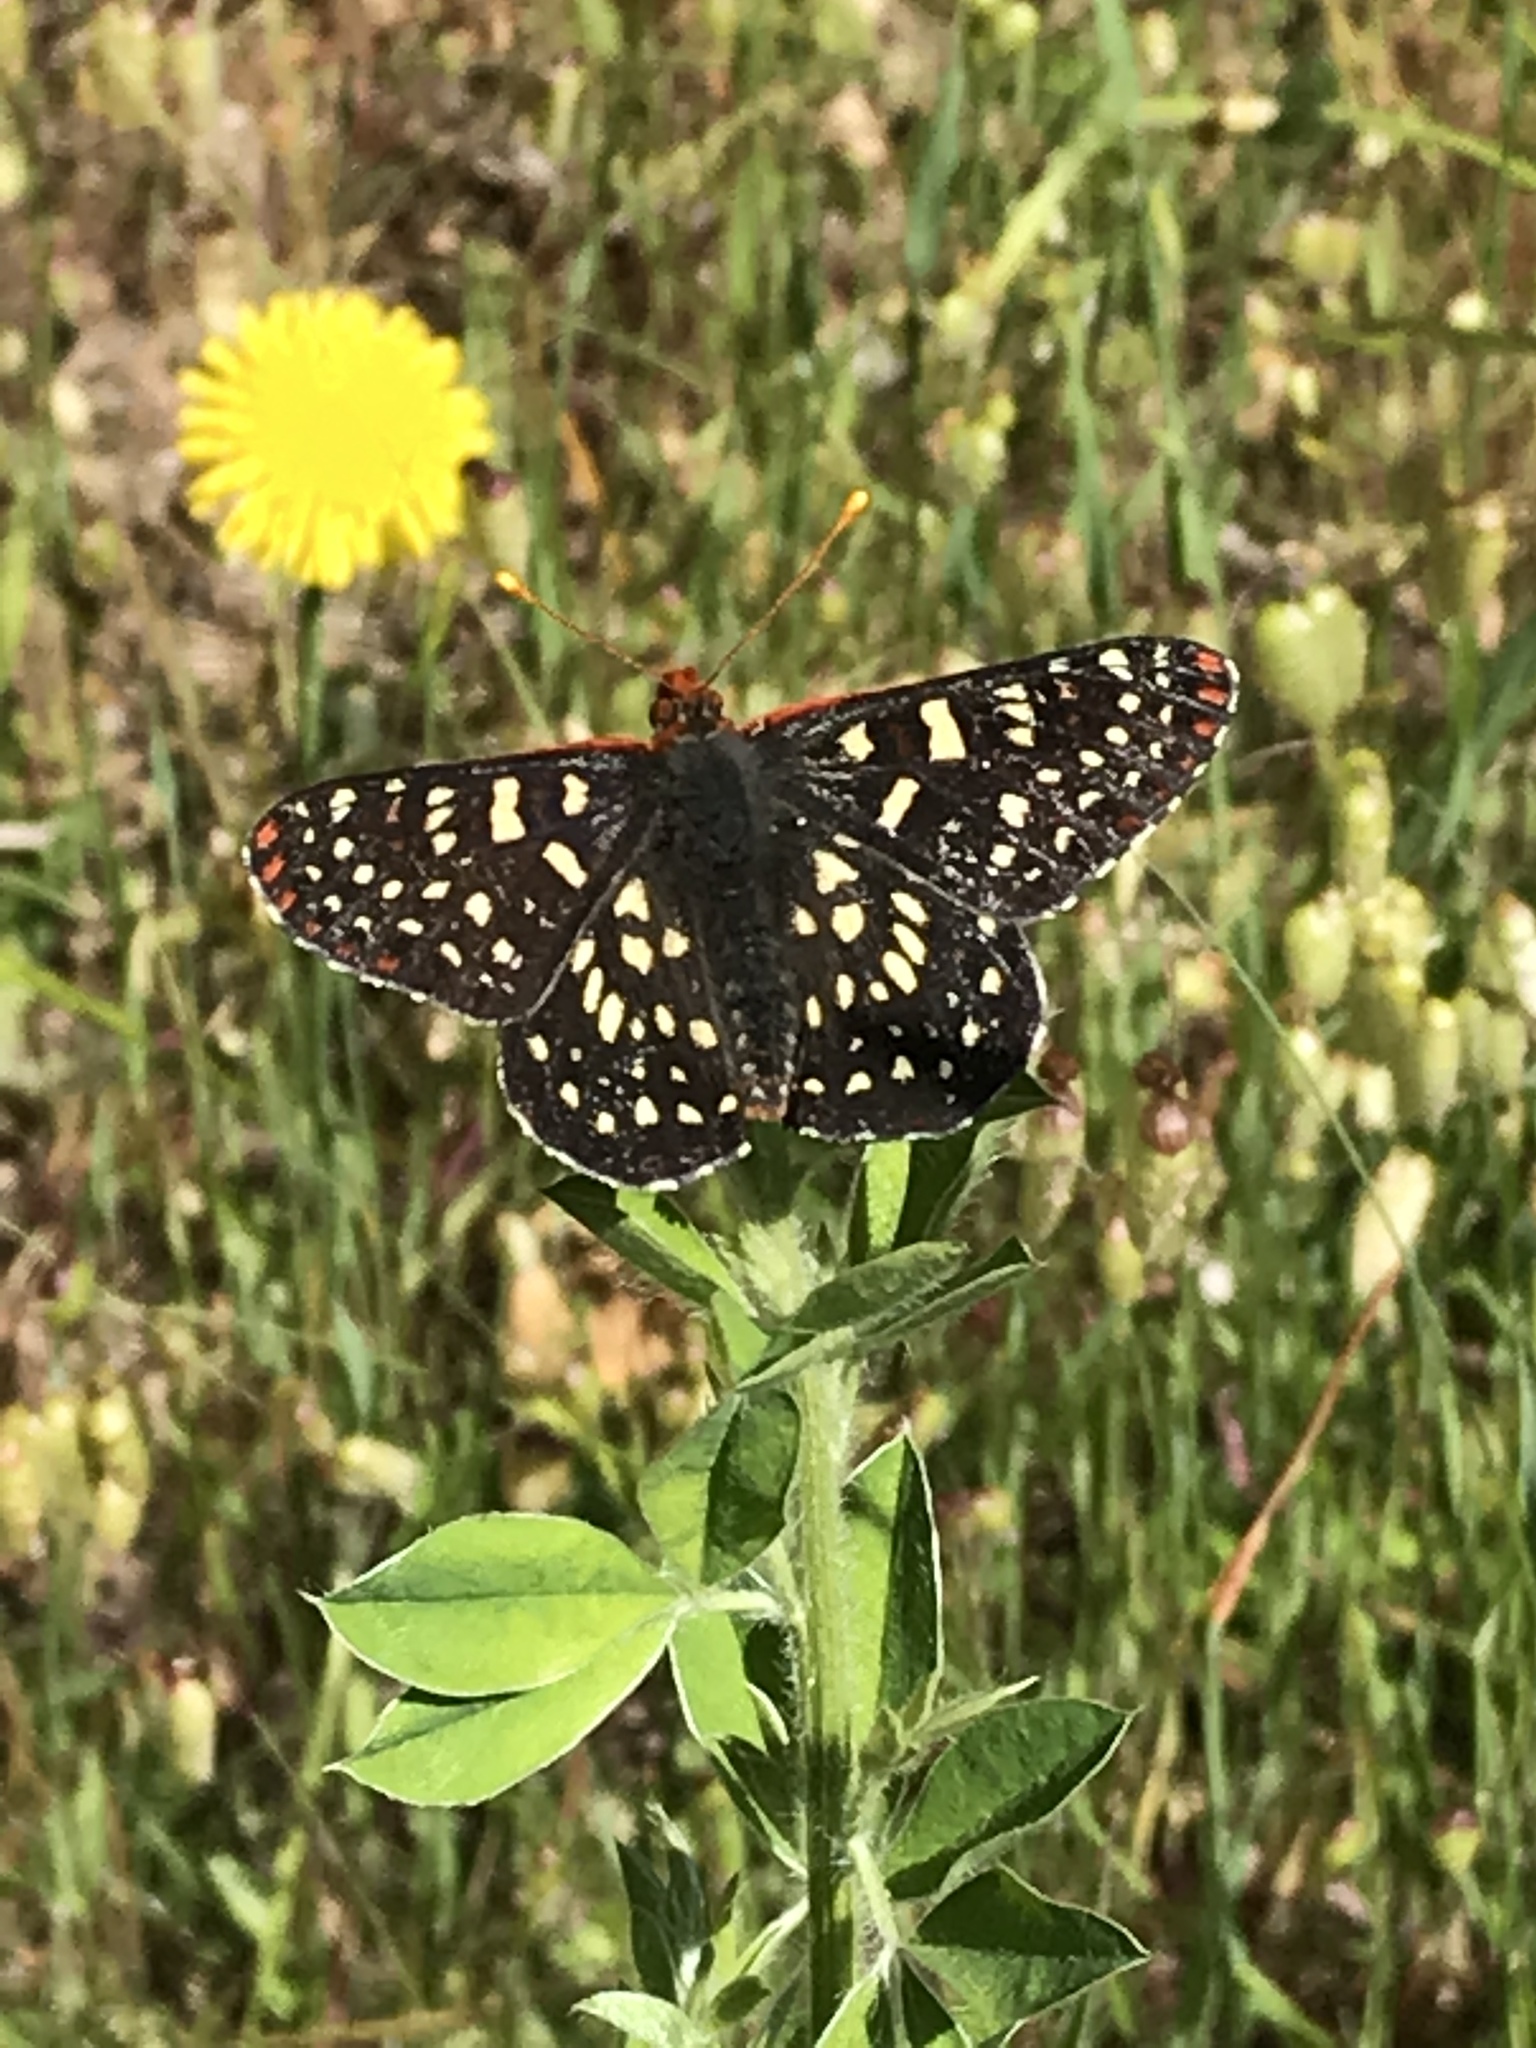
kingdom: Animalia
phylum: Arthropoda
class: Insecta
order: Lepidoptera
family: Nymphalidae
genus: Occidryas
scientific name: Occidryas chalcedona
